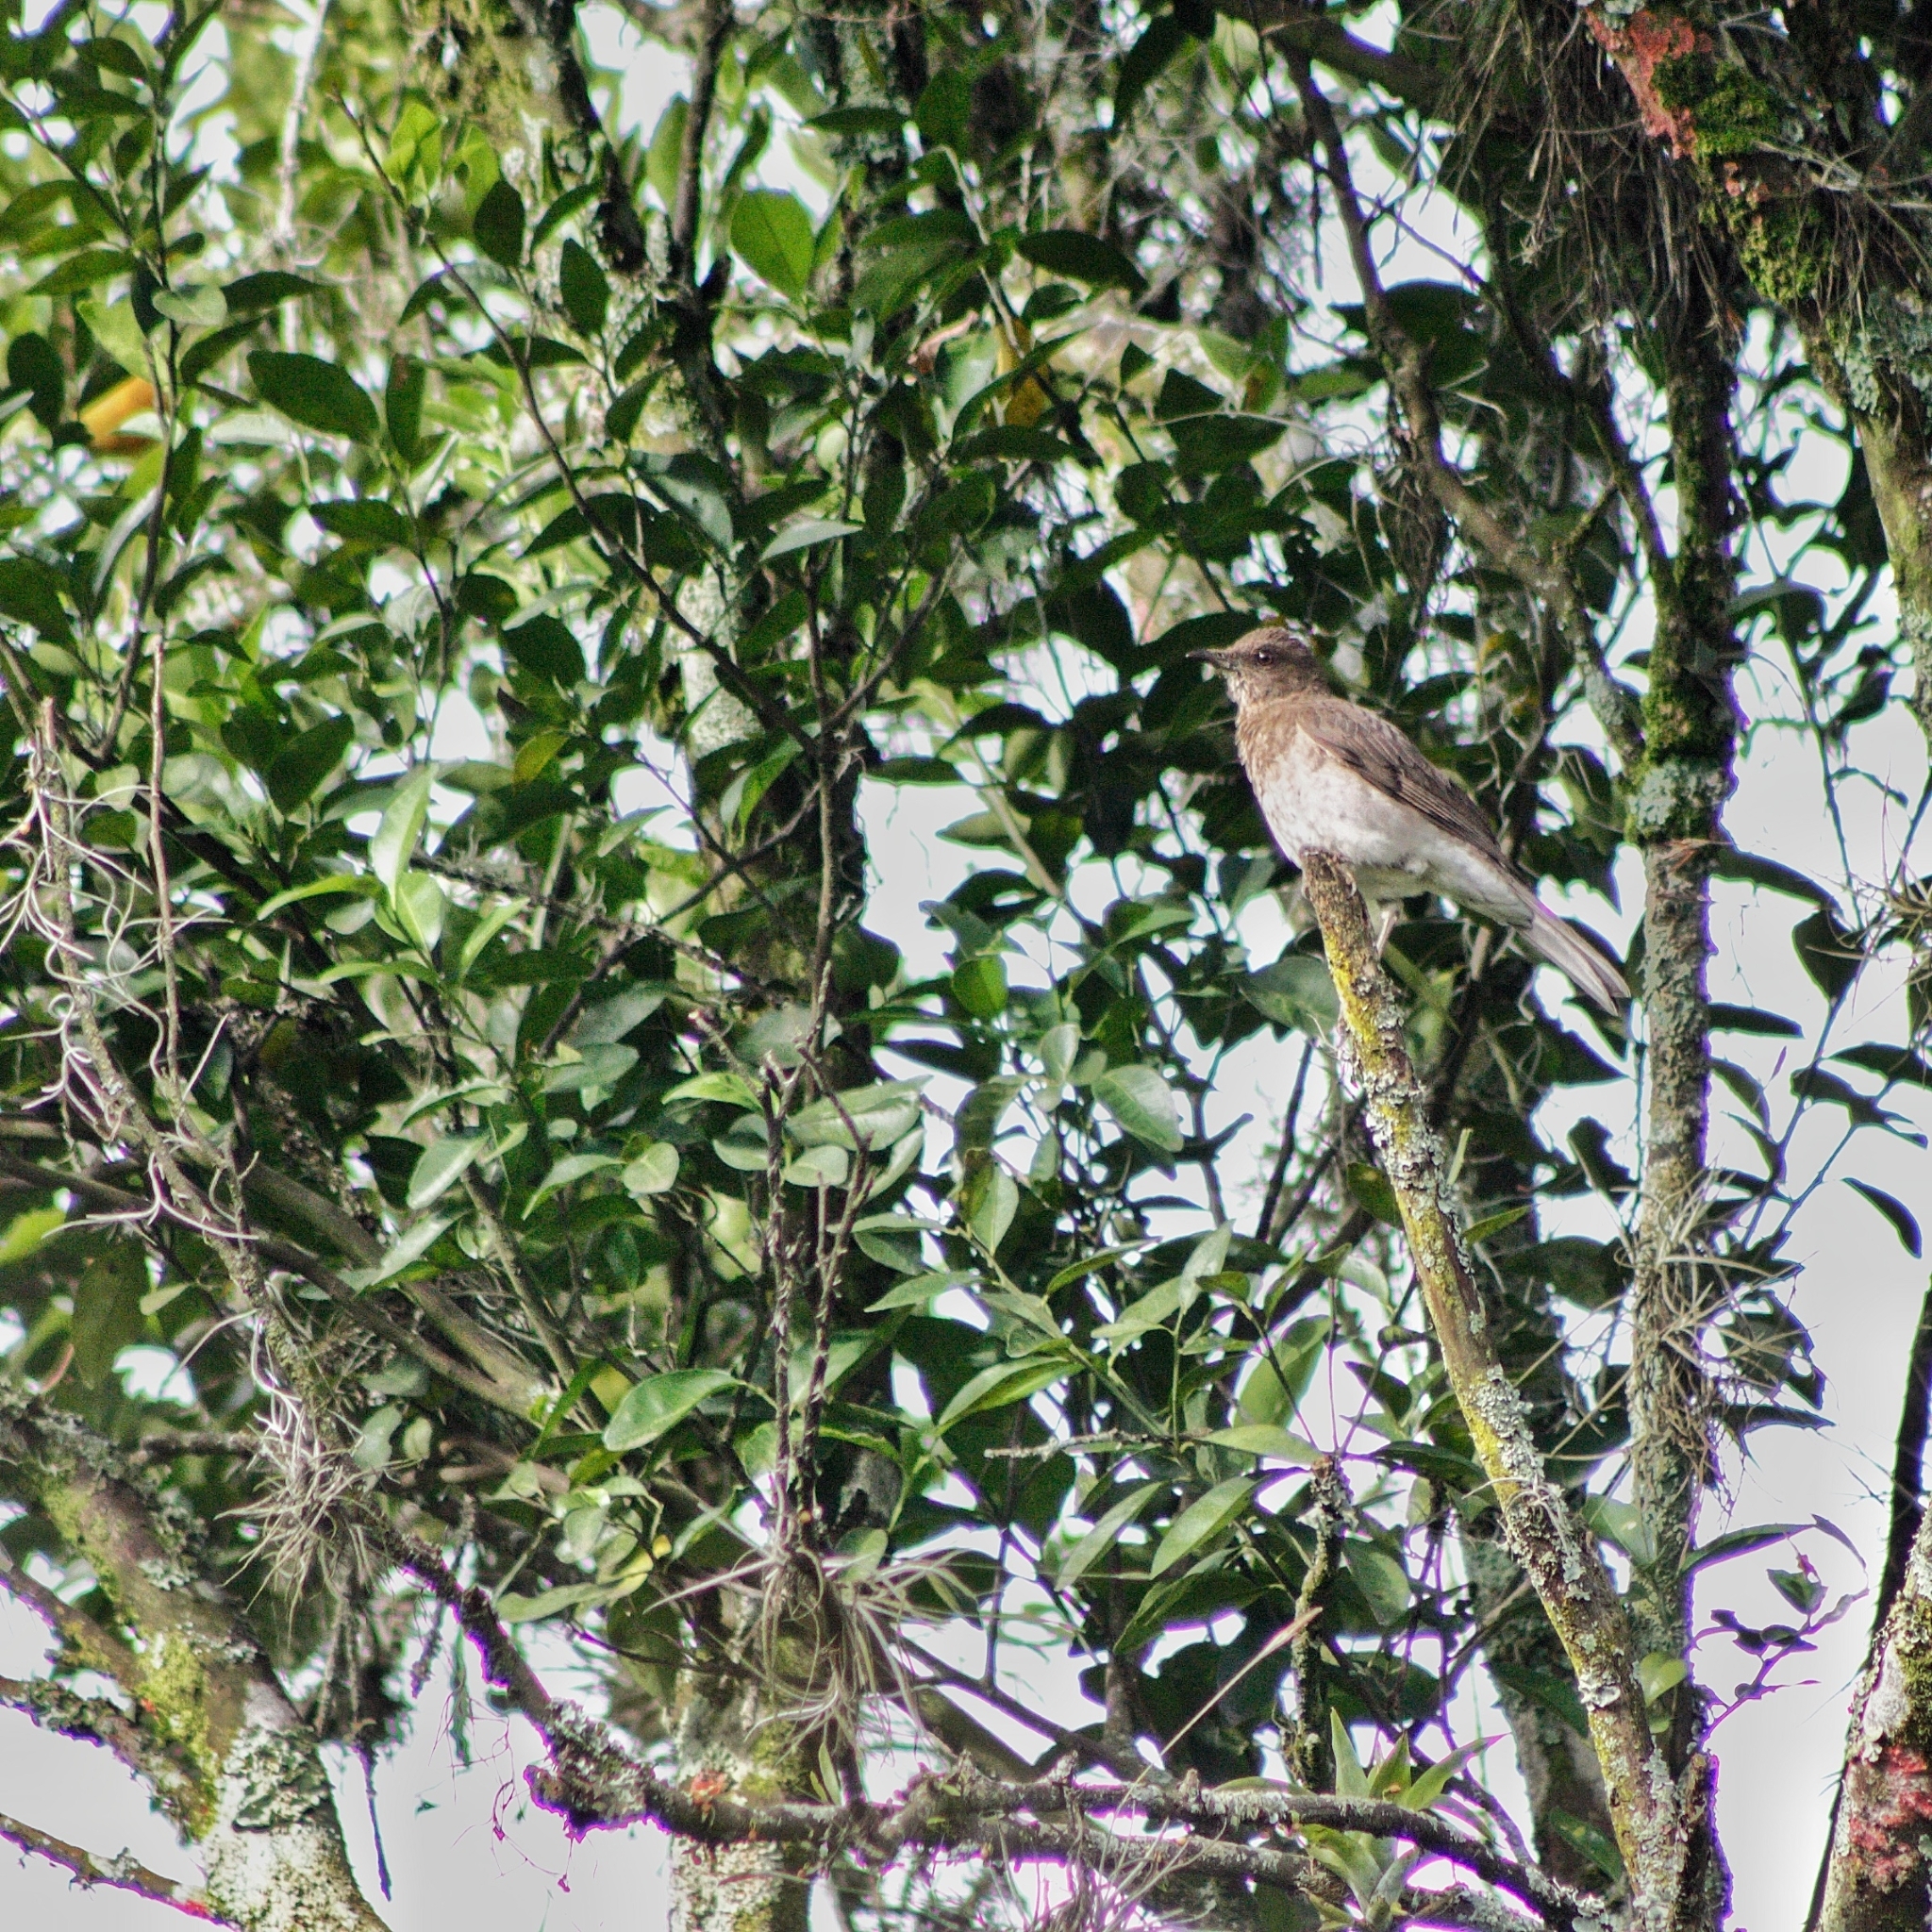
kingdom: Animalia
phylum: Chordata
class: Aves
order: Passeriformes
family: Turdidae
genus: Turdus
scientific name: Turdus ignobilis
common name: Black-billed thrush
